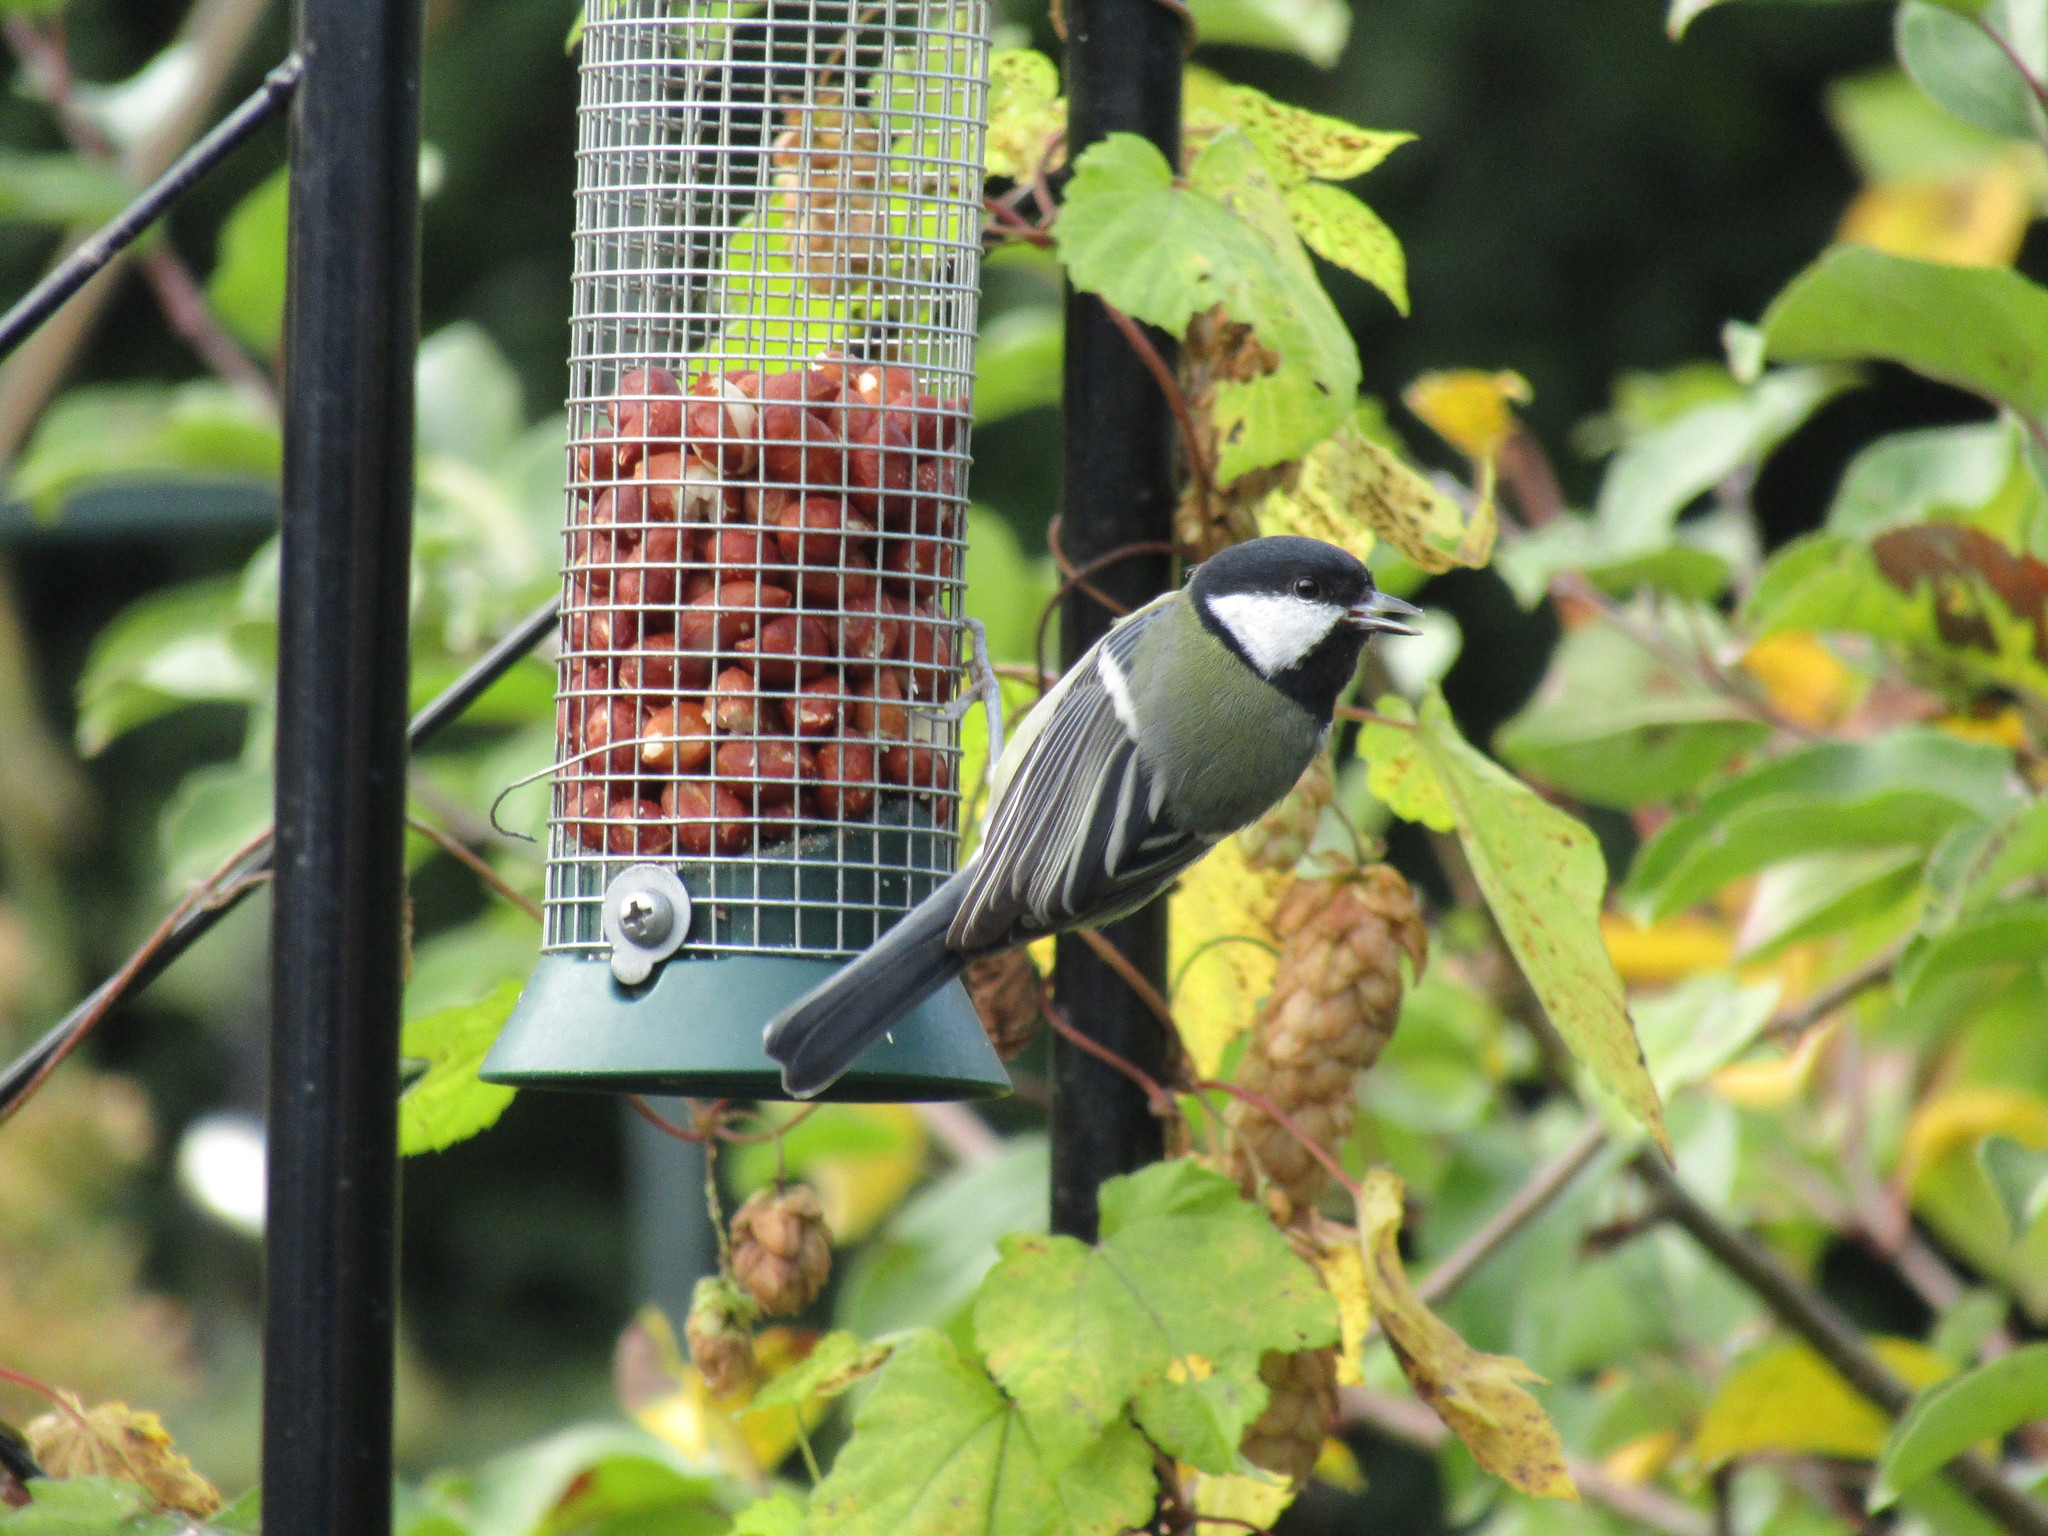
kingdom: Animalia
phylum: Chordata
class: Aves
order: Passeriformes
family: Paridae
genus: Parus
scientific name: Parus major
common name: Great tit
